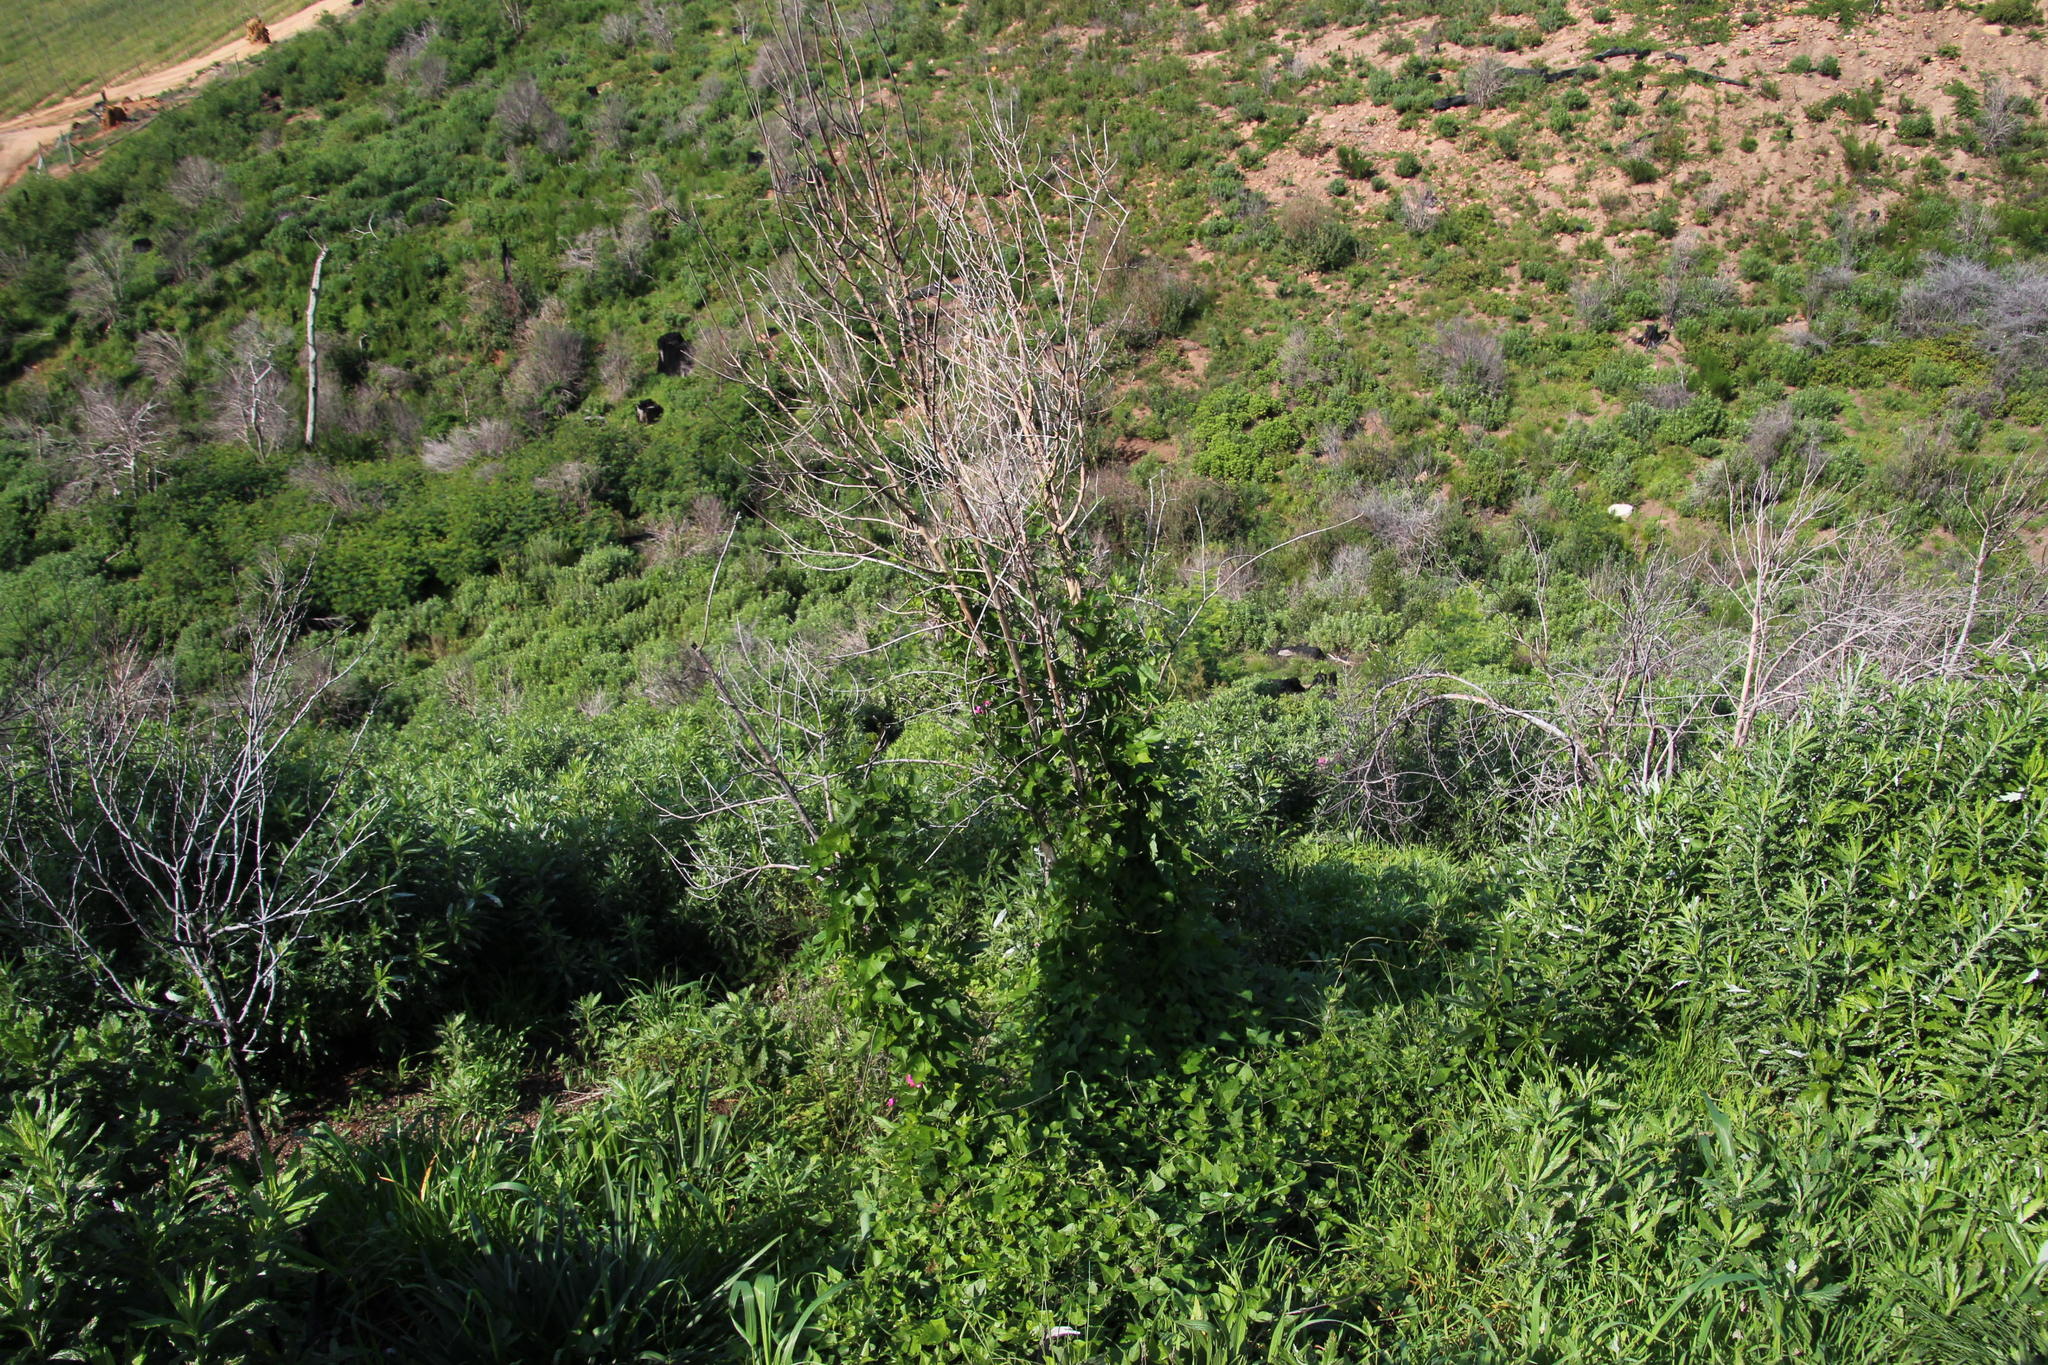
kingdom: Plantae
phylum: Tracheophyta
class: Magnoliopsida
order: Fabales
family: Fabaceae
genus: Dipogon
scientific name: Dipogon lignosus
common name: Okie bean
